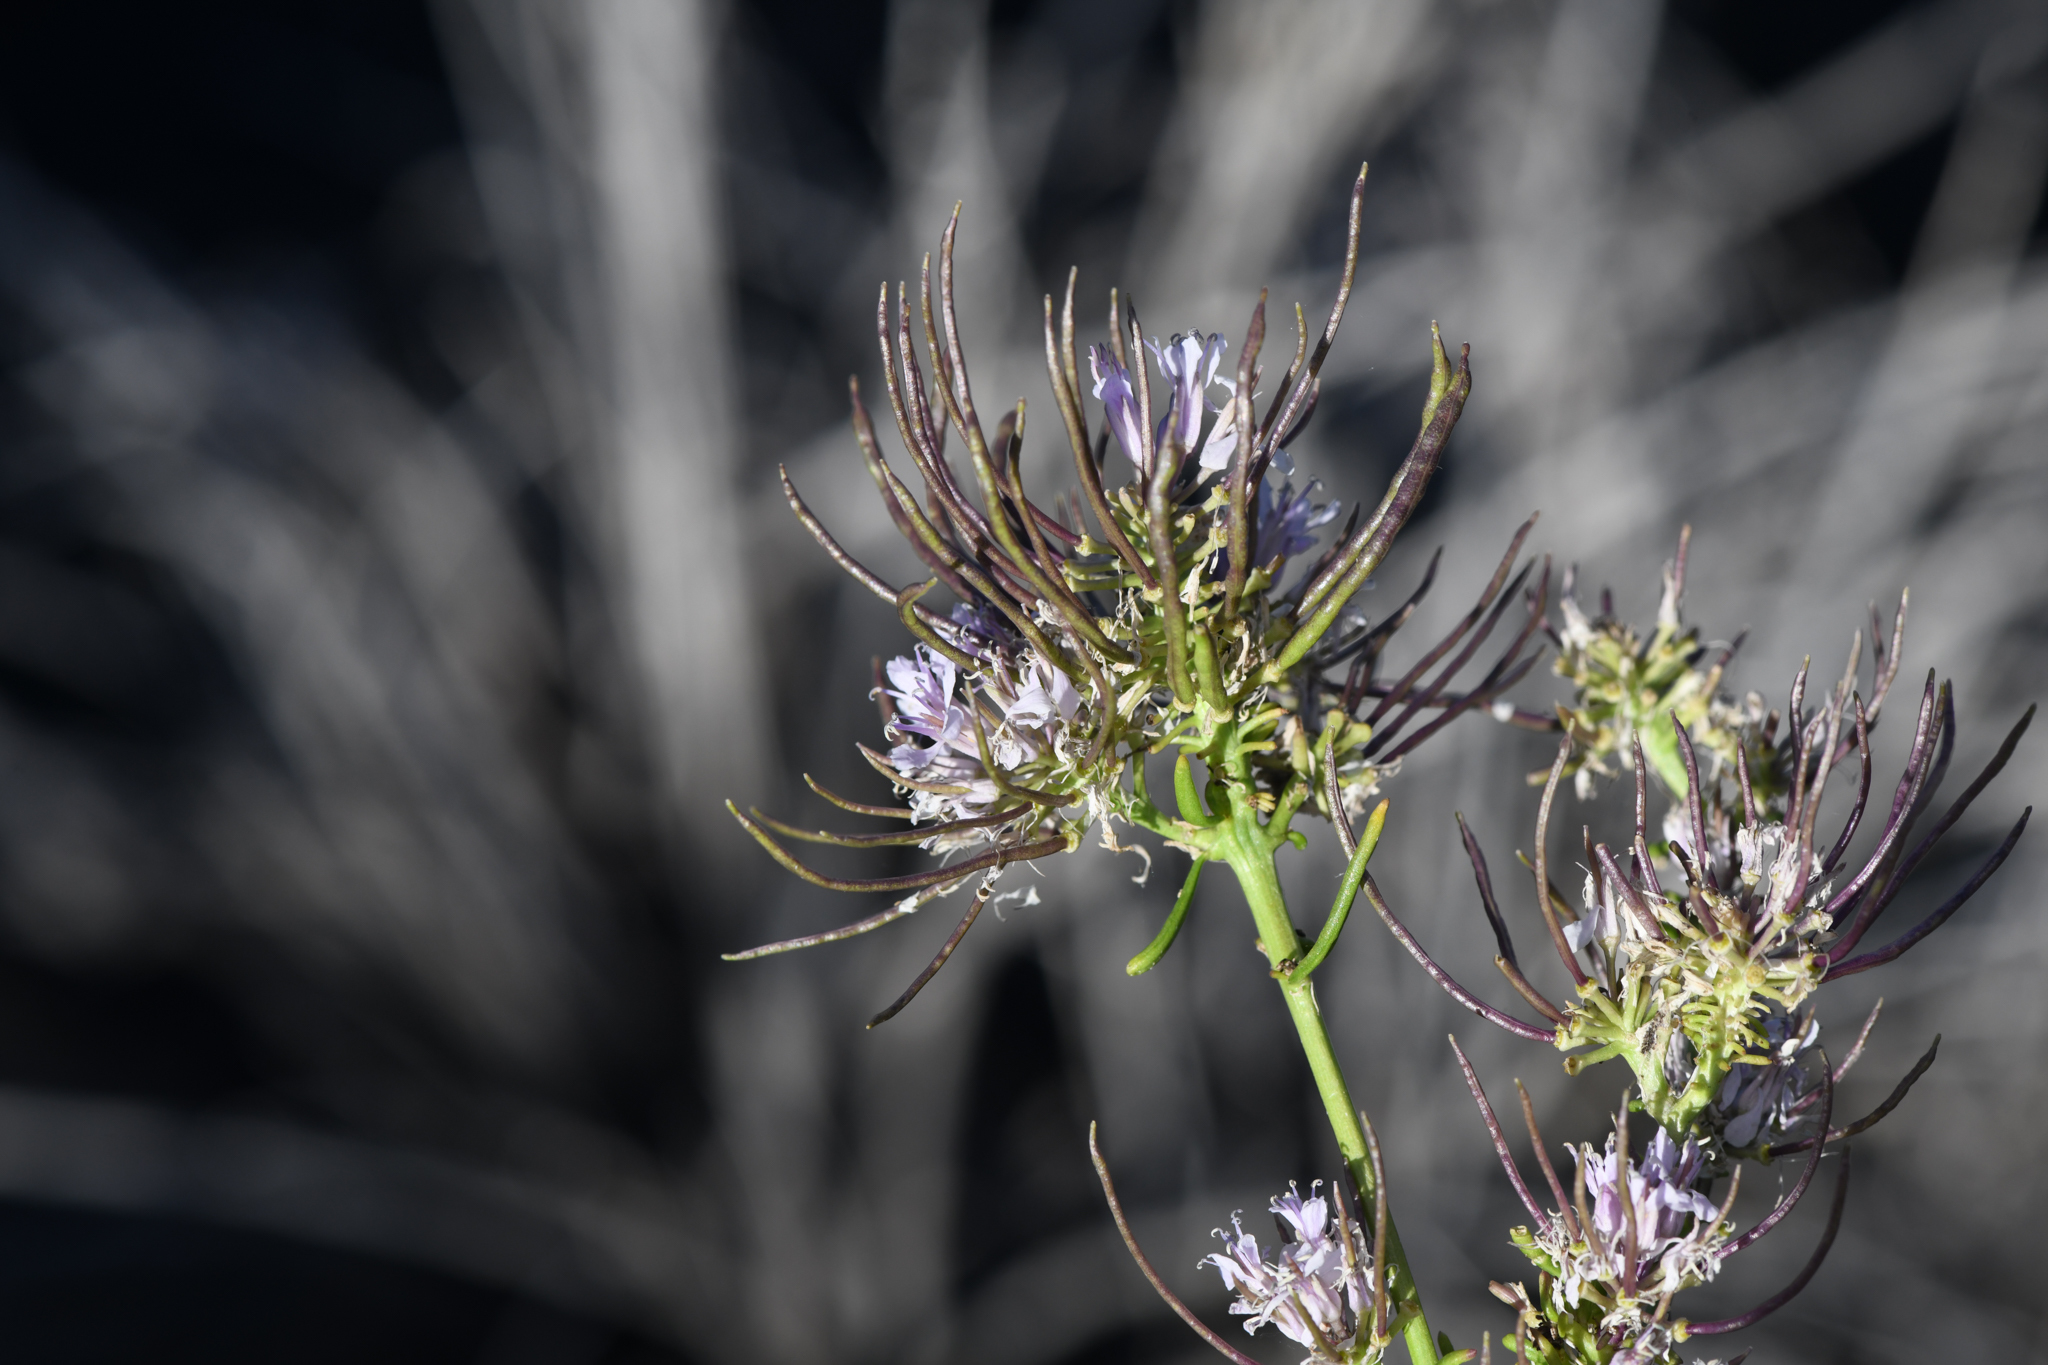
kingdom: Plantae
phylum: Tracheophyta
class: Magnoliopsida
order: Brassicales
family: Brassicaceae
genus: Thelypodium
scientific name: Thelypodium integrifolium
